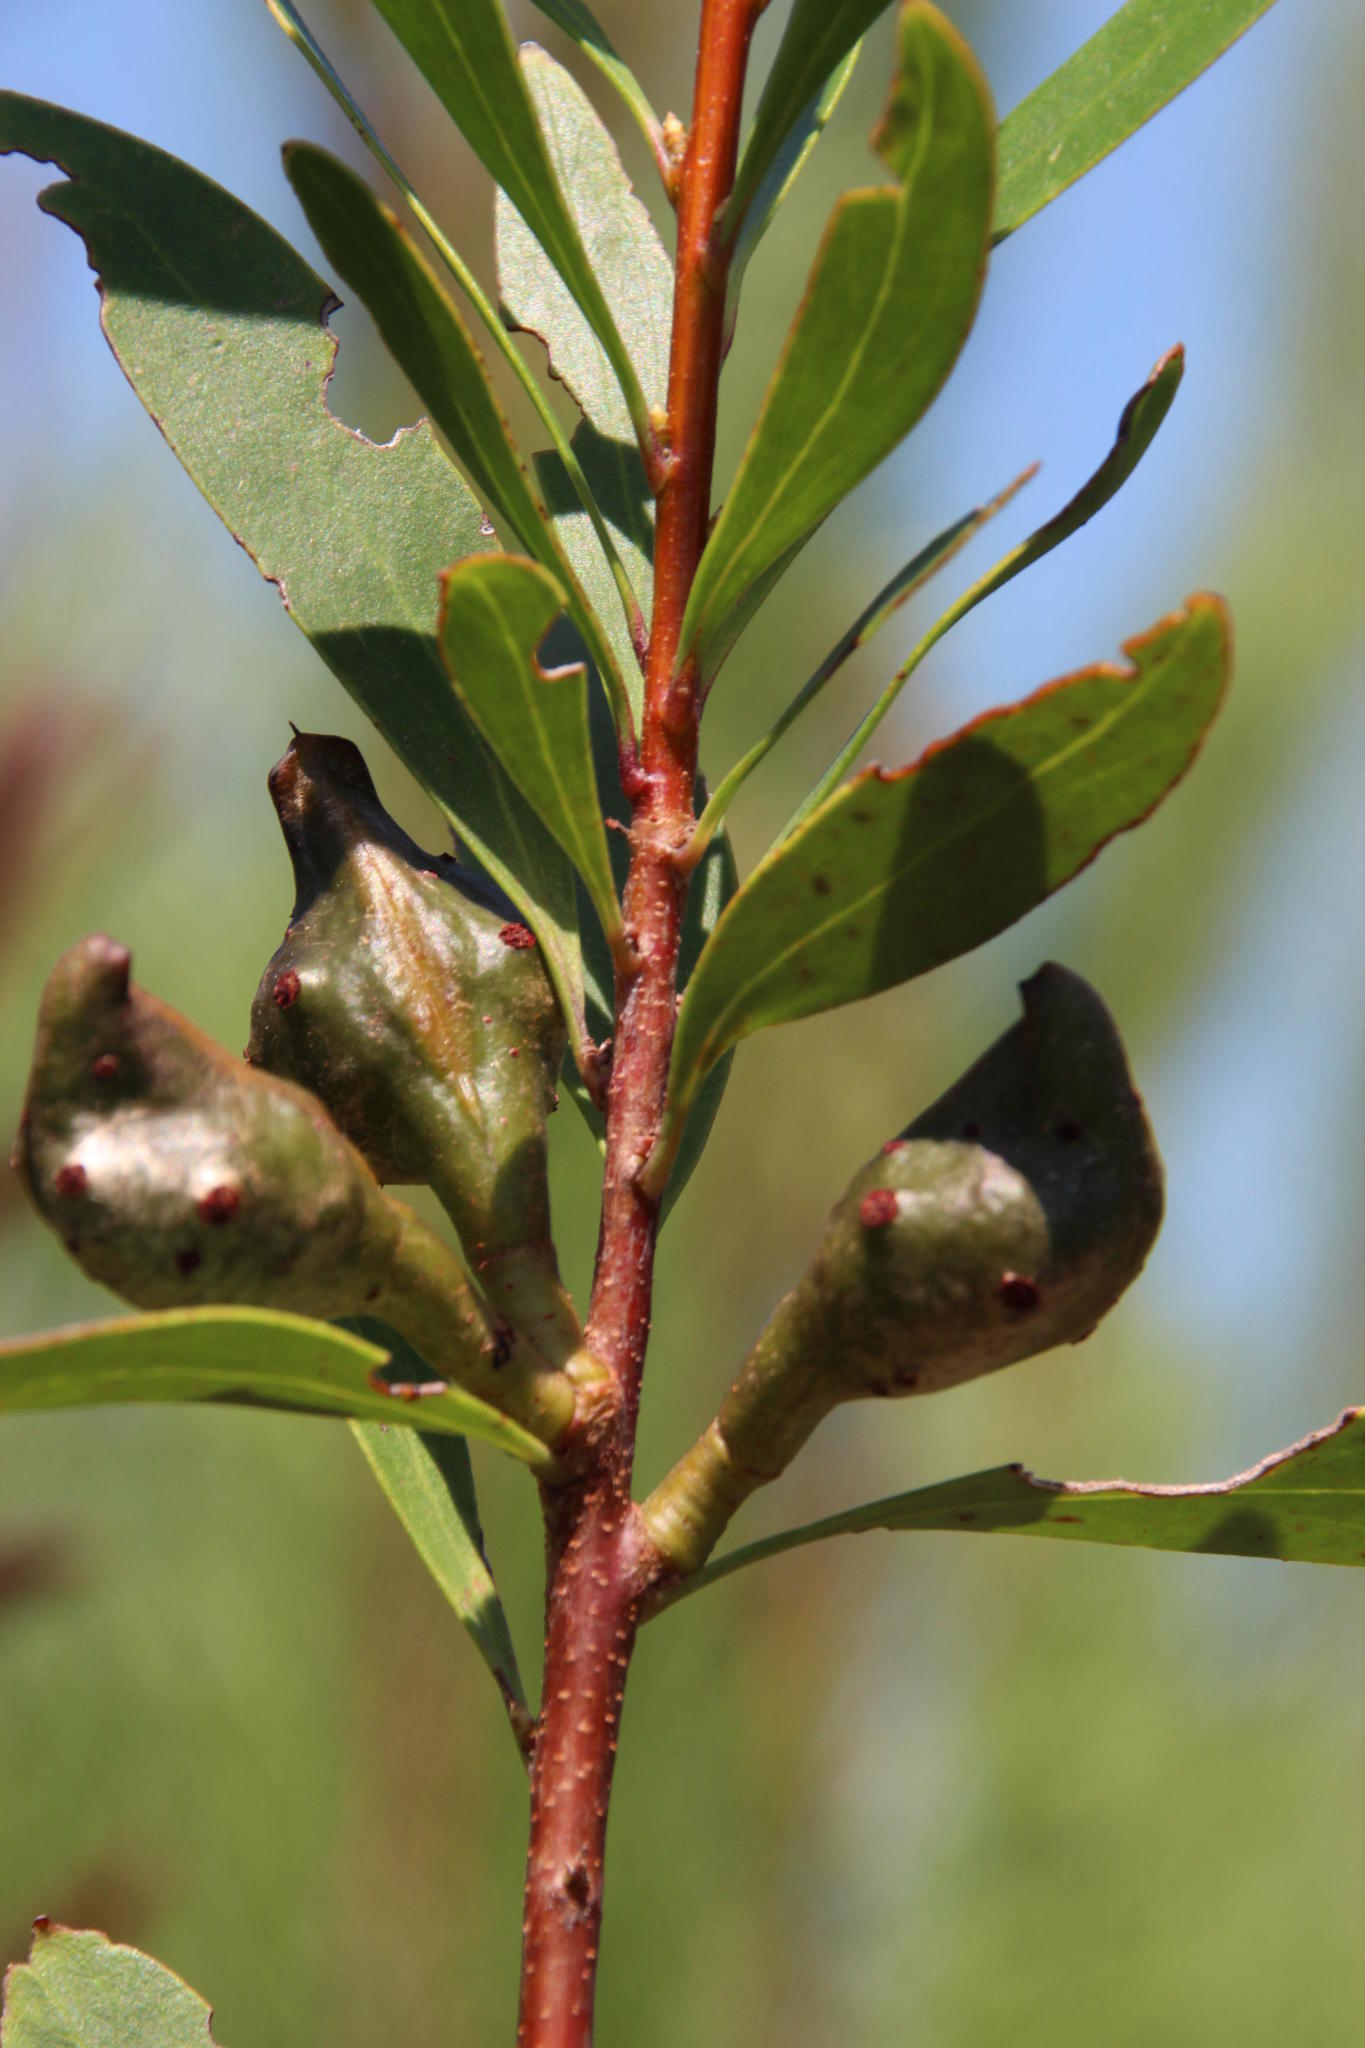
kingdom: Plantae
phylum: Tracheophyta
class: Magnoliopsida
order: Proteales
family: Proteaceae
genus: Hakea
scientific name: Hakea salicifolia
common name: Willow hakea
